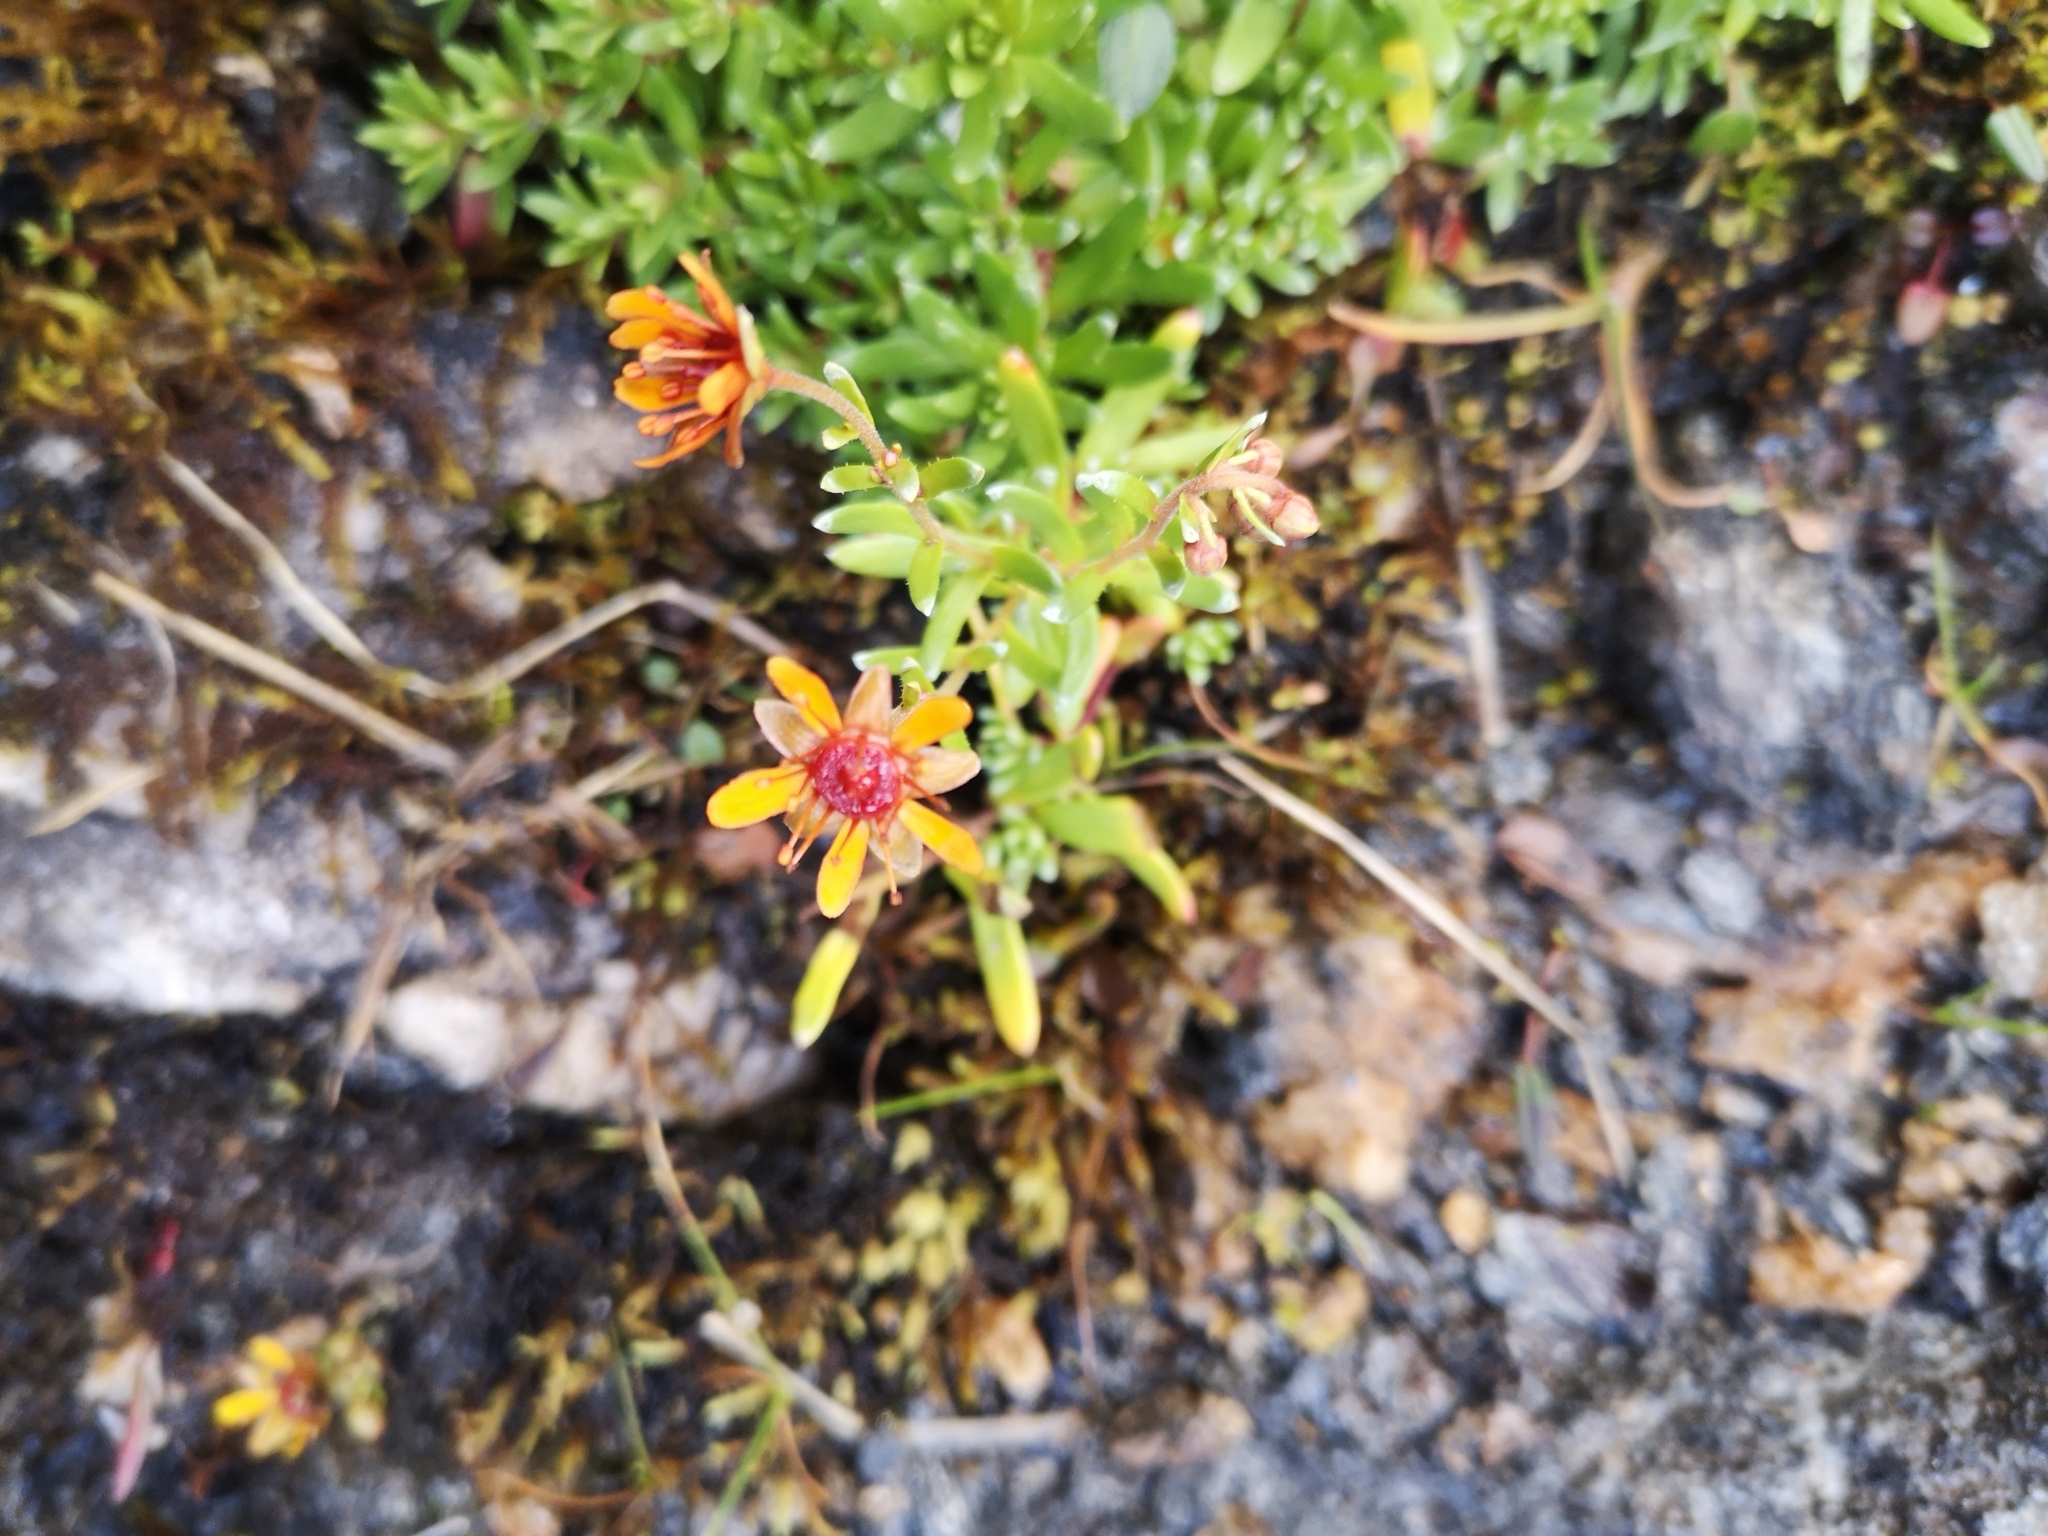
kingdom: Plantae
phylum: Tracheophyta
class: Magnoliopsida
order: Saxifragales
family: Saxifragaceae
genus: Saxifraga
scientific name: Saxifraga aizoides
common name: Yellow mountain saxifrage
